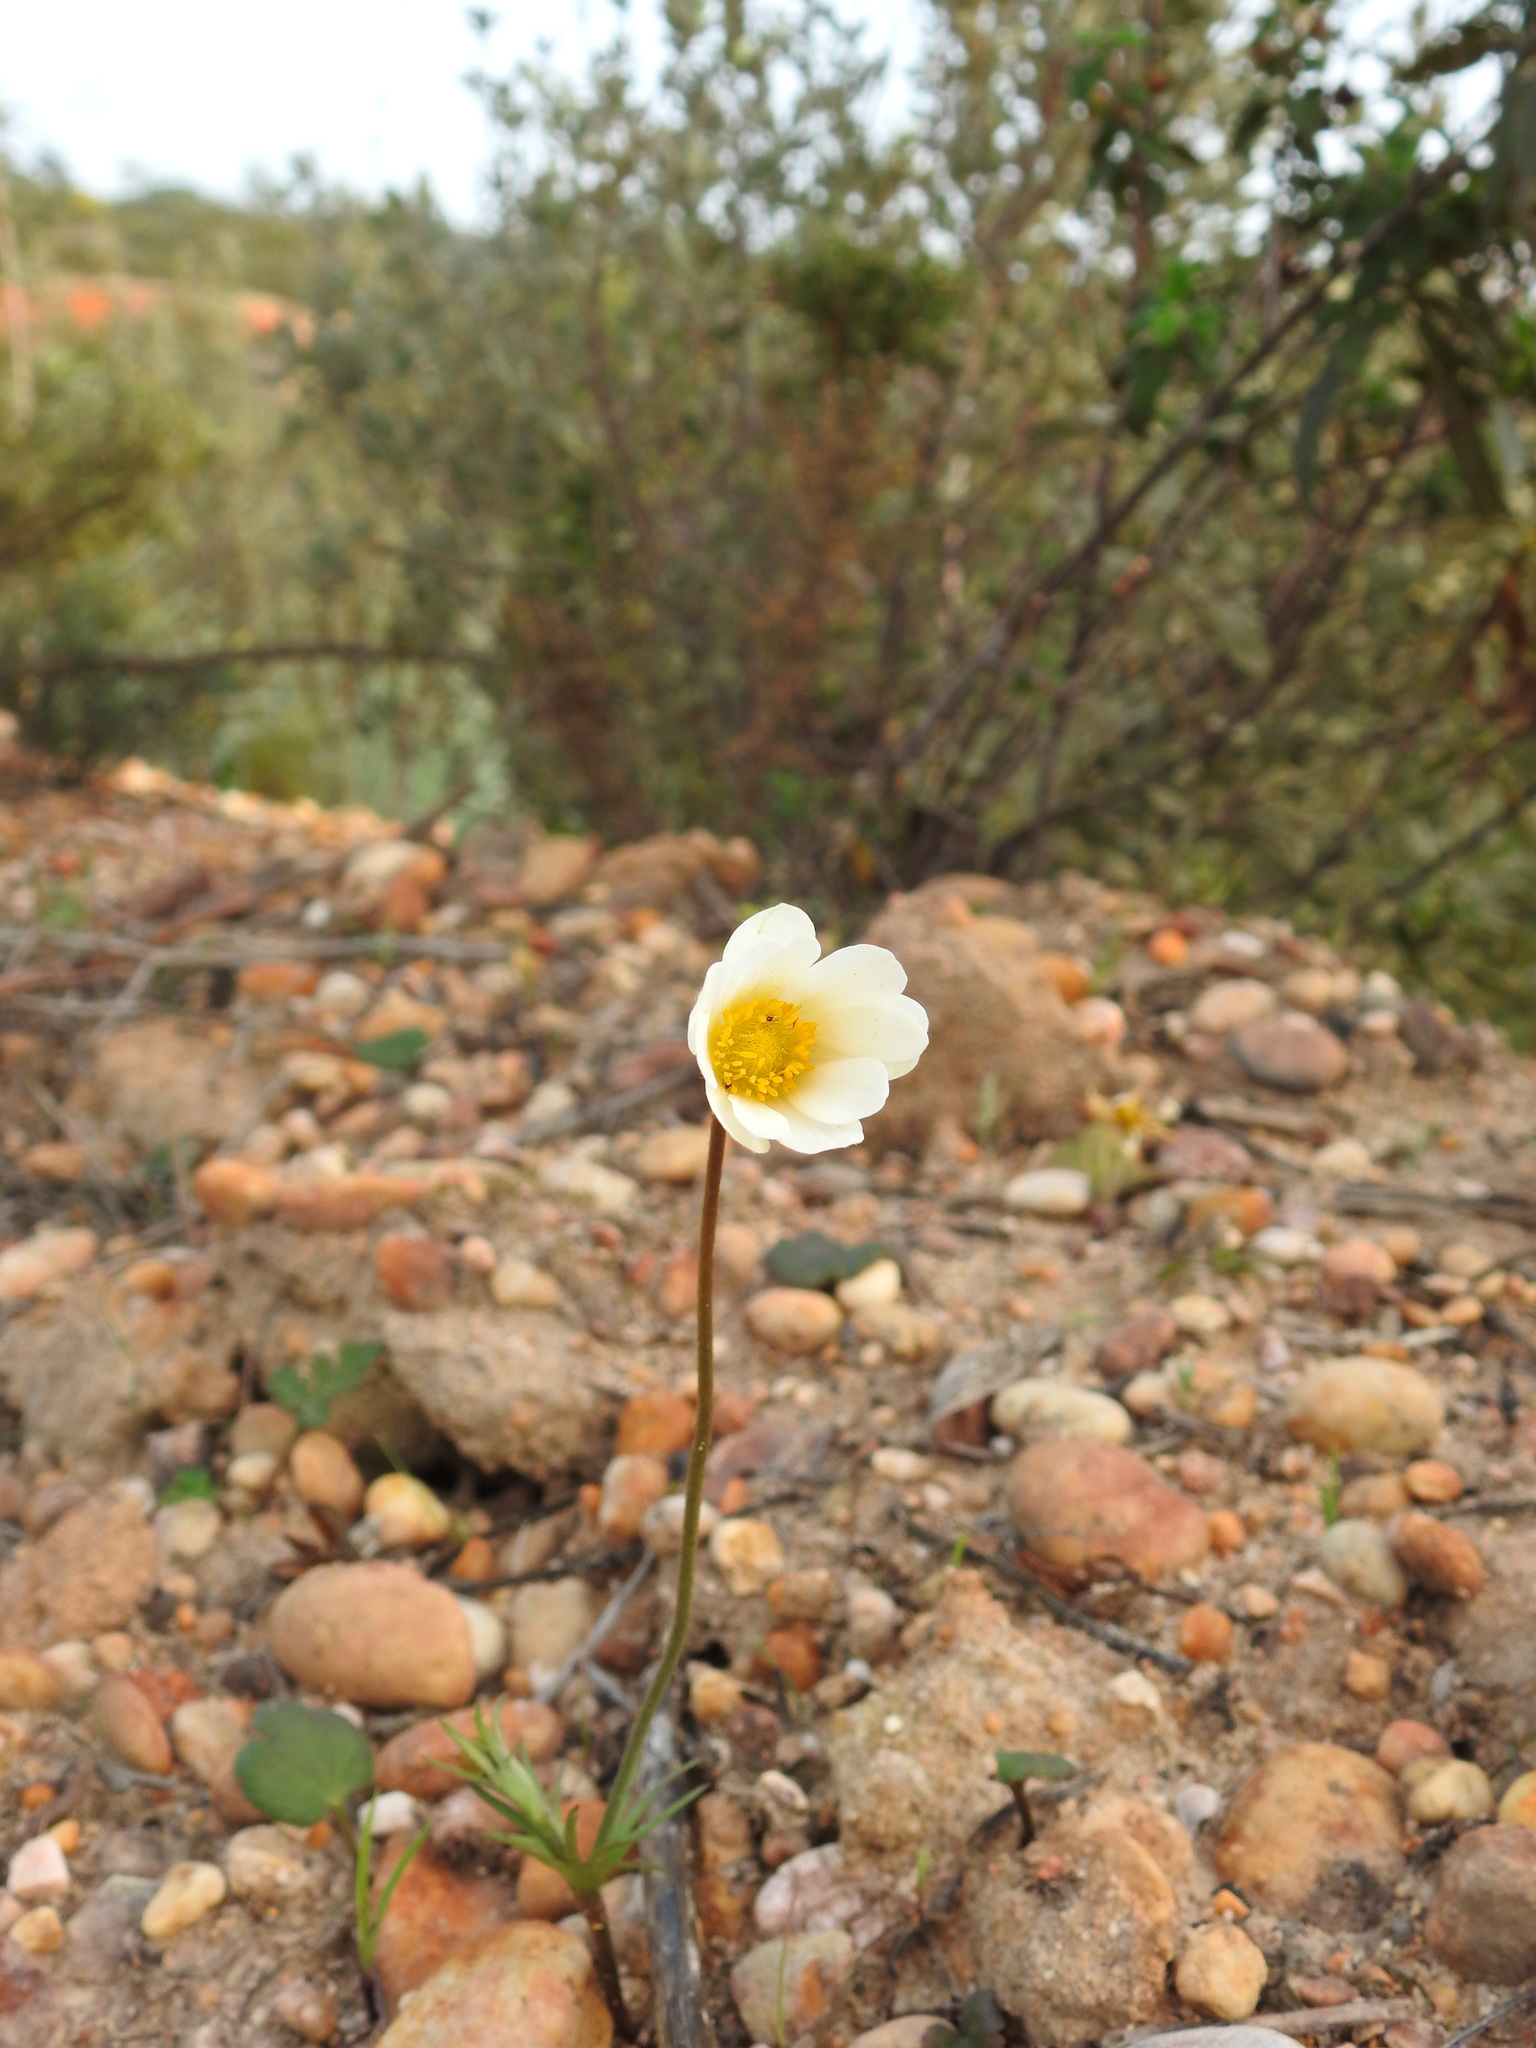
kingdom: Plantae
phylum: Tracheophyta
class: Magnoliopsida
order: Ranunculales
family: Ranunculaceae
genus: Anemone
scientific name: Anemone palmata
